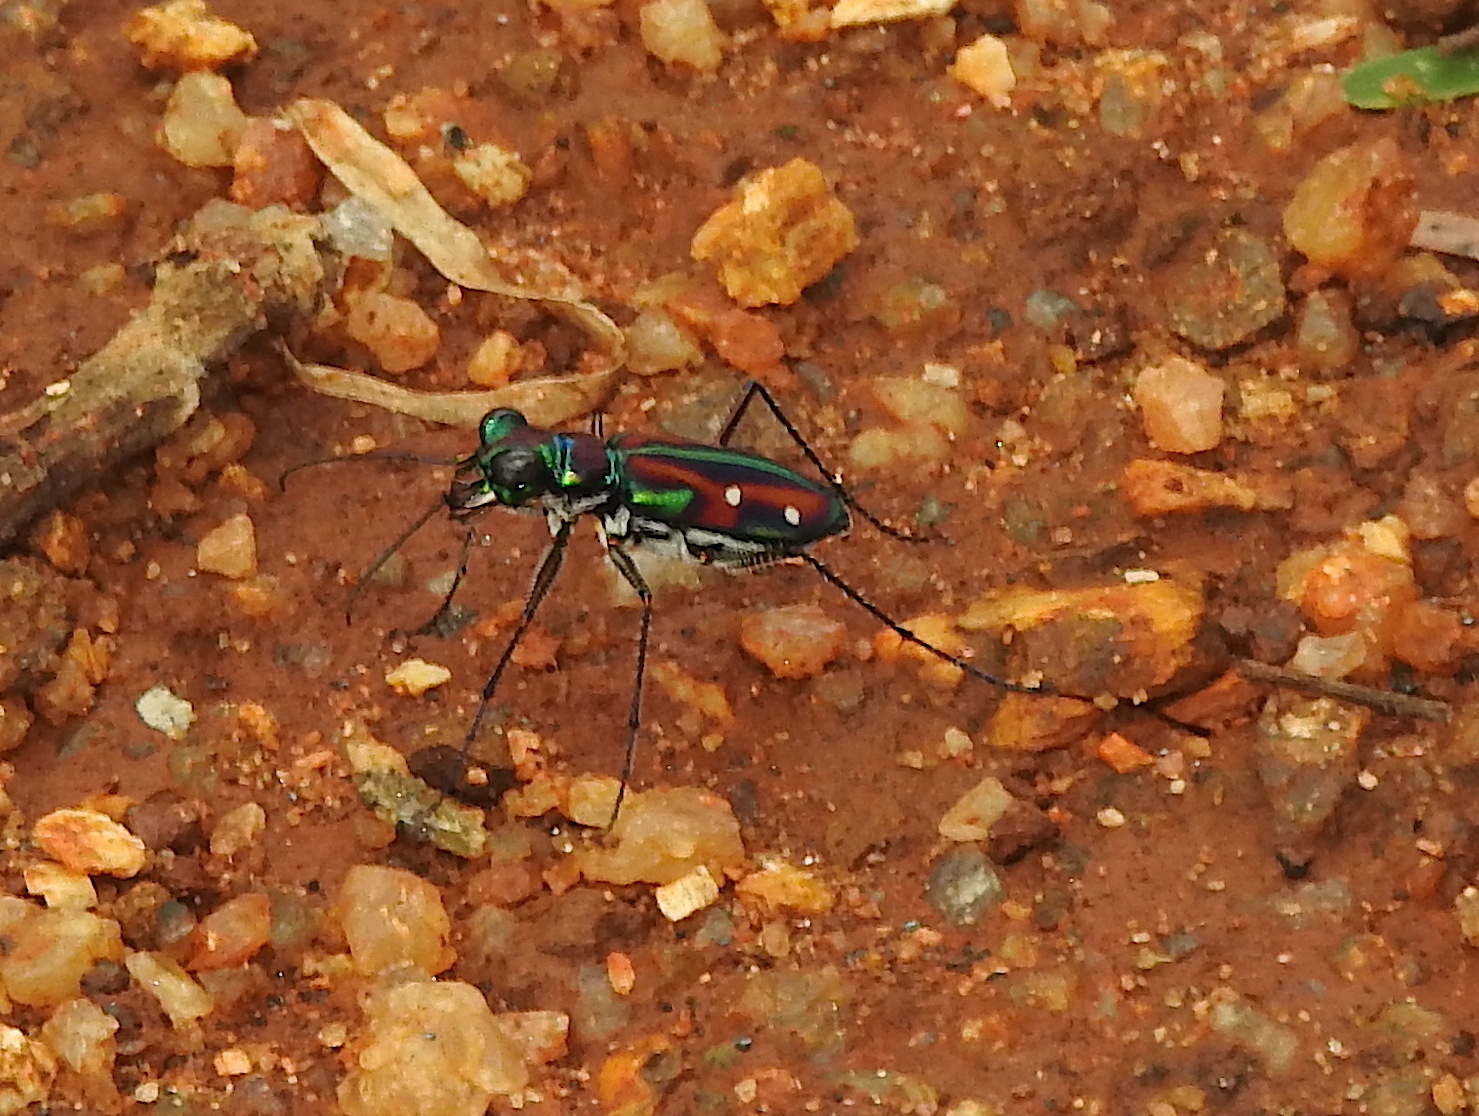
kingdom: Animalia
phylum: Arthropoda
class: Insecta
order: Coleoptera
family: Carabidae
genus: Jansenia
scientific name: Jansenia rugosiceps
